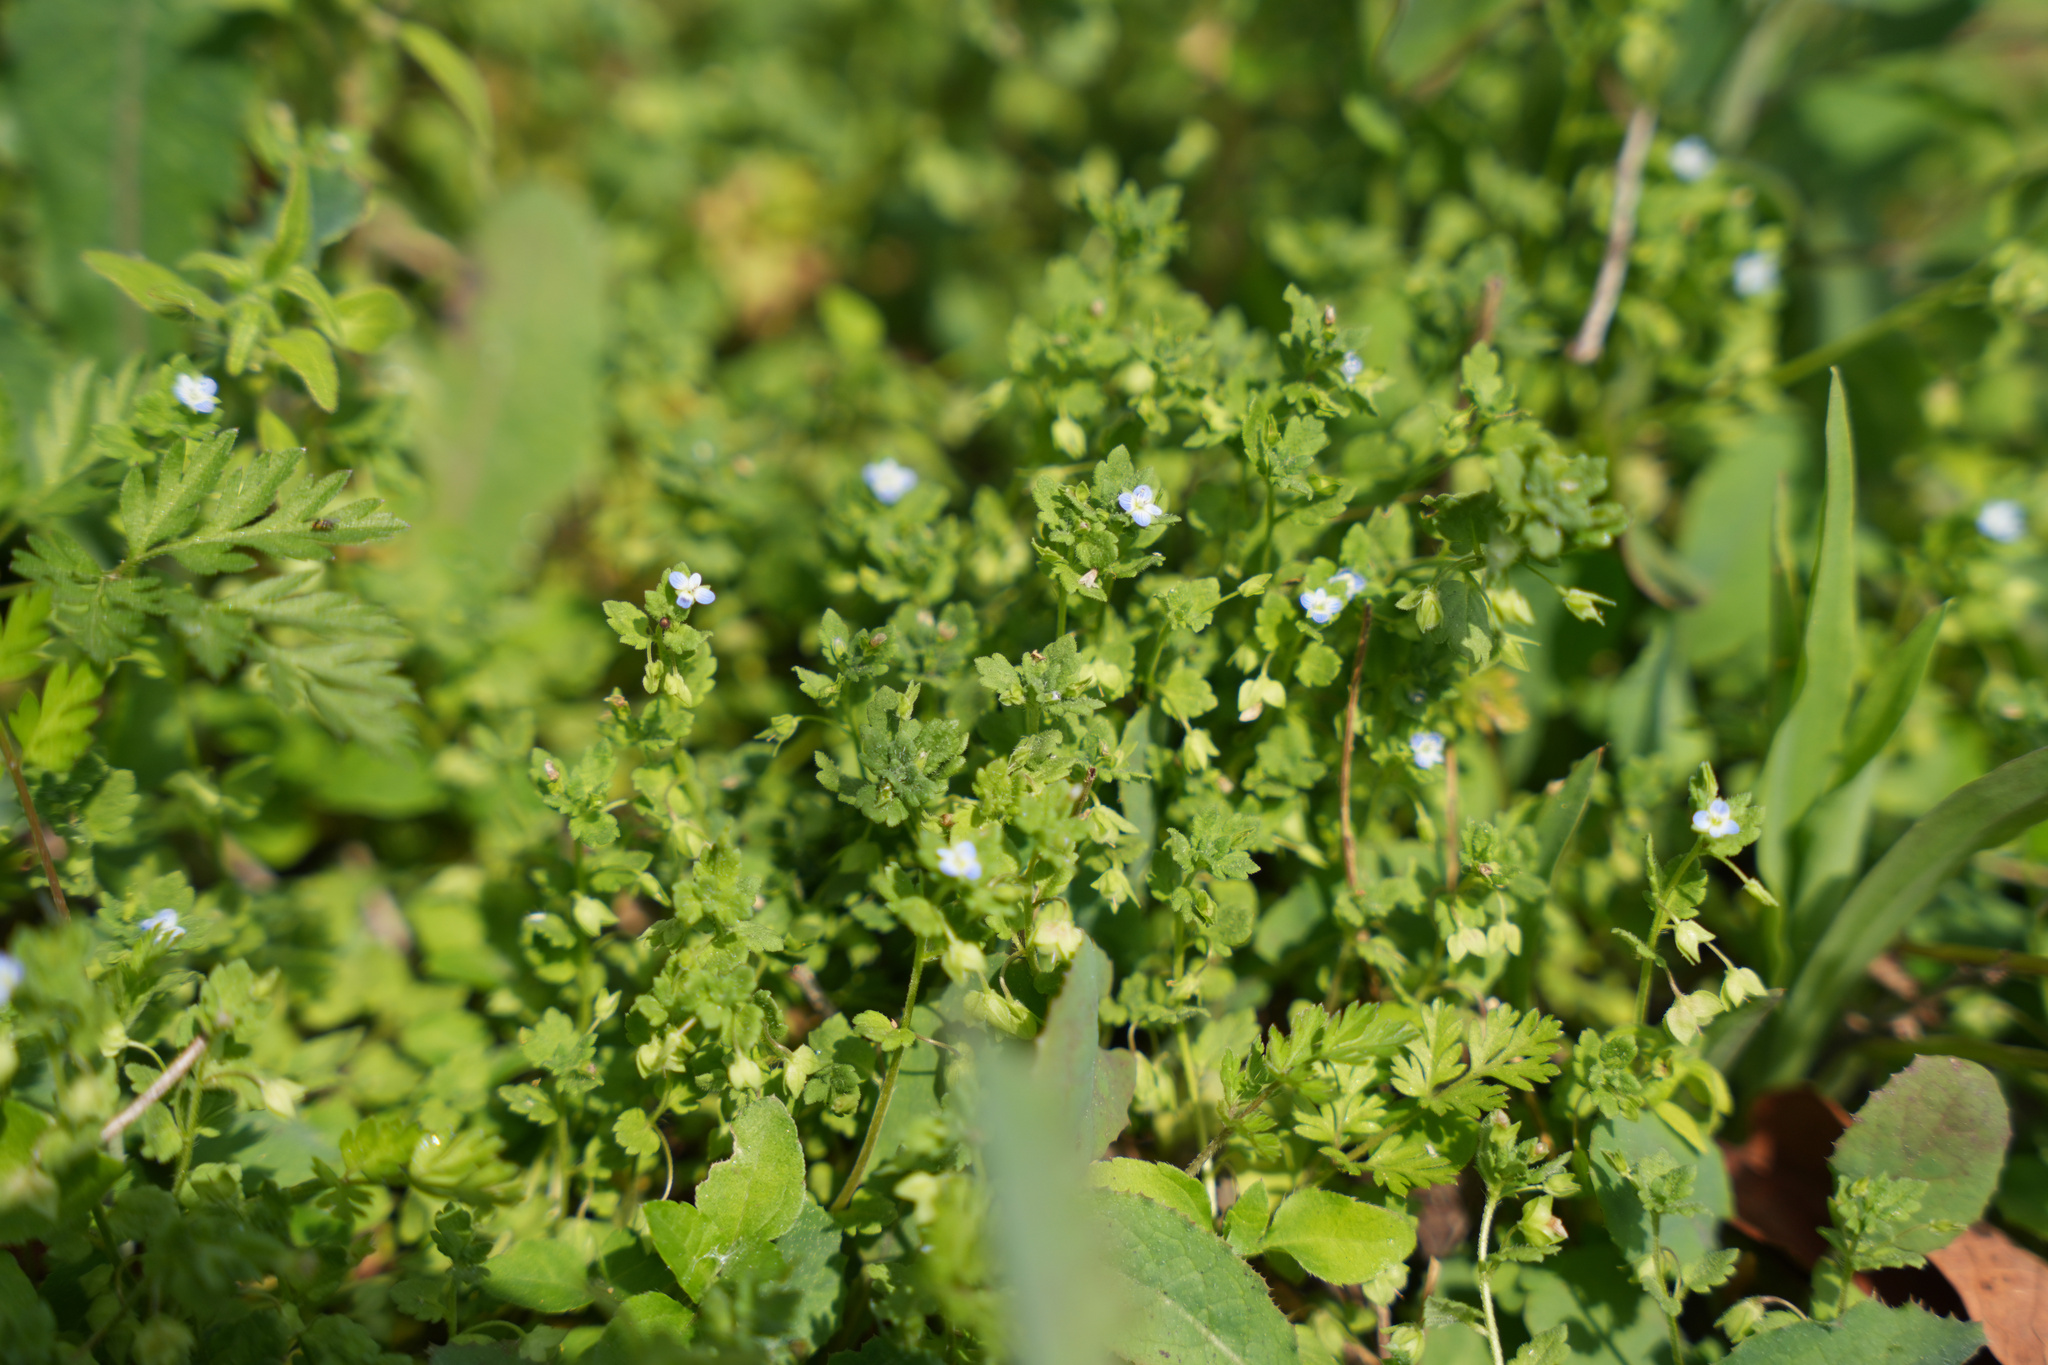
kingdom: Plantae
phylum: Tracheophyta
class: Magnoliopsida
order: Lamiales
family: Plantaginaceae
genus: Veronica
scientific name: Veronica polita
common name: Grey field-speedwell
